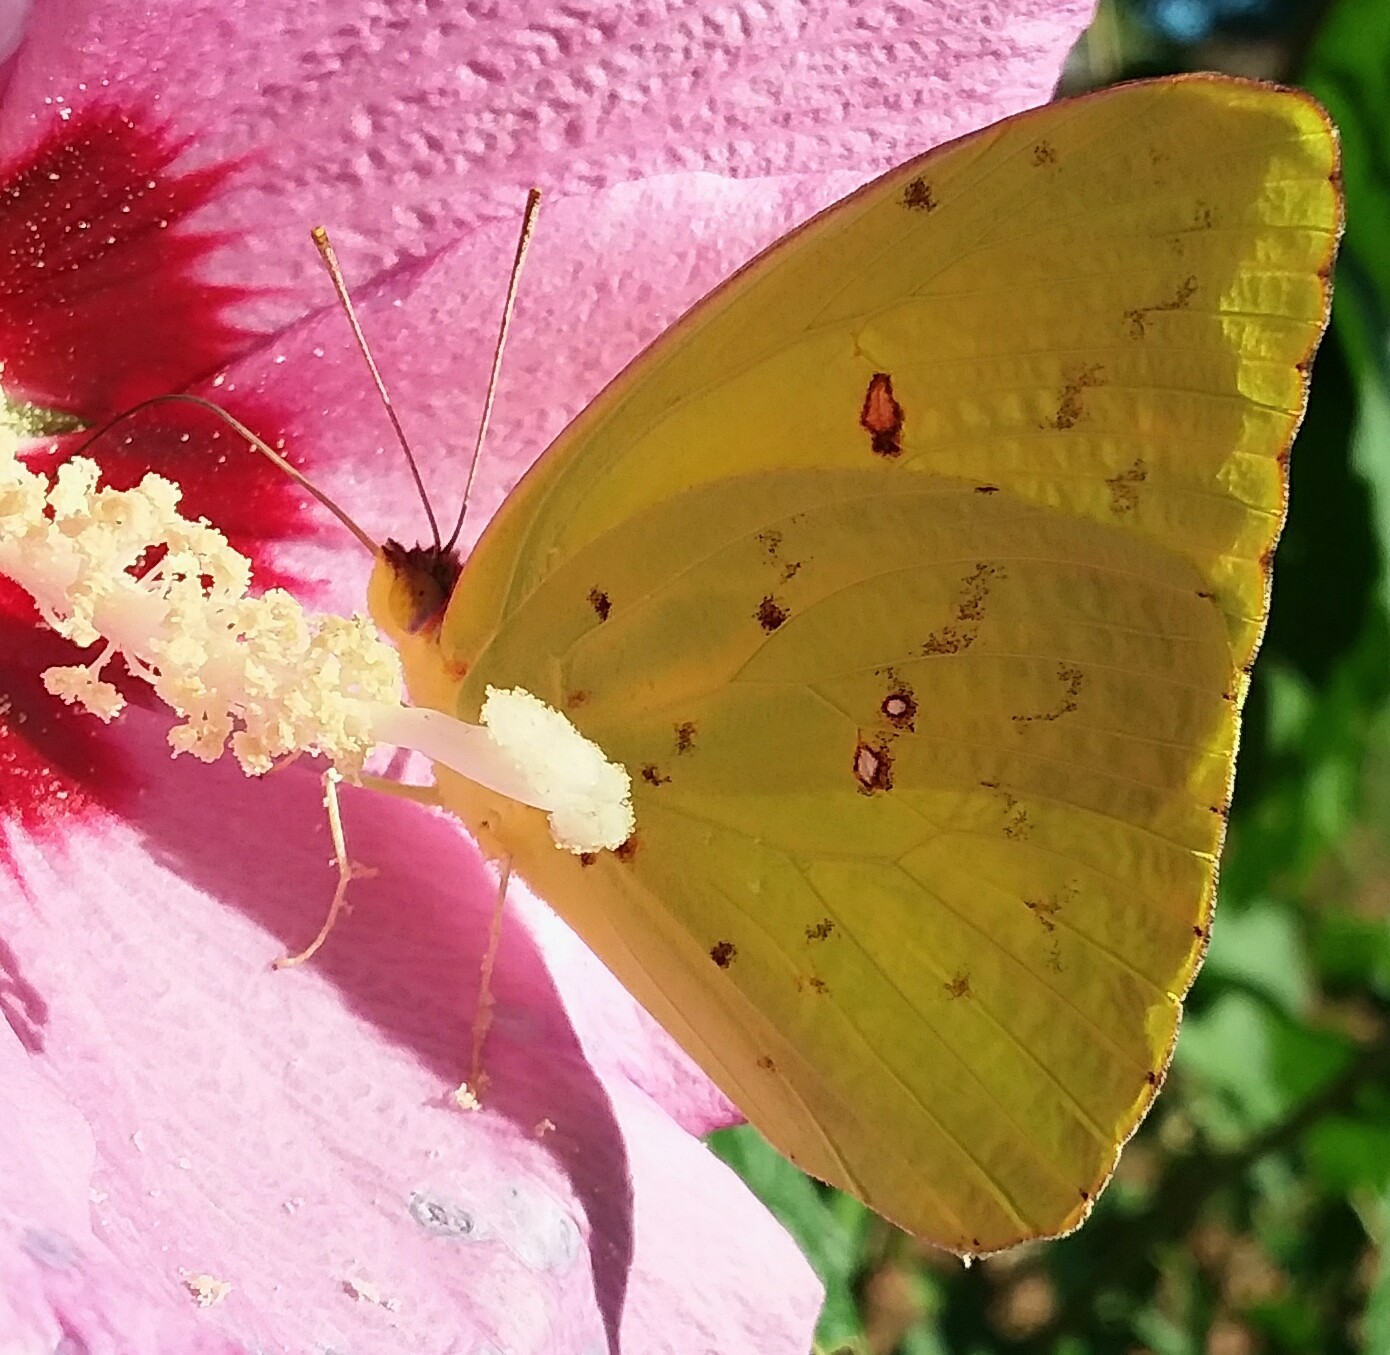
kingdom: Animalia
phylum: Arthropoda
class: Insecta
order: Lepidoptera
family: Pieridae
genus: Phoebis
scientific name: Phoebis sennae
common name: Cloudless sulphur
